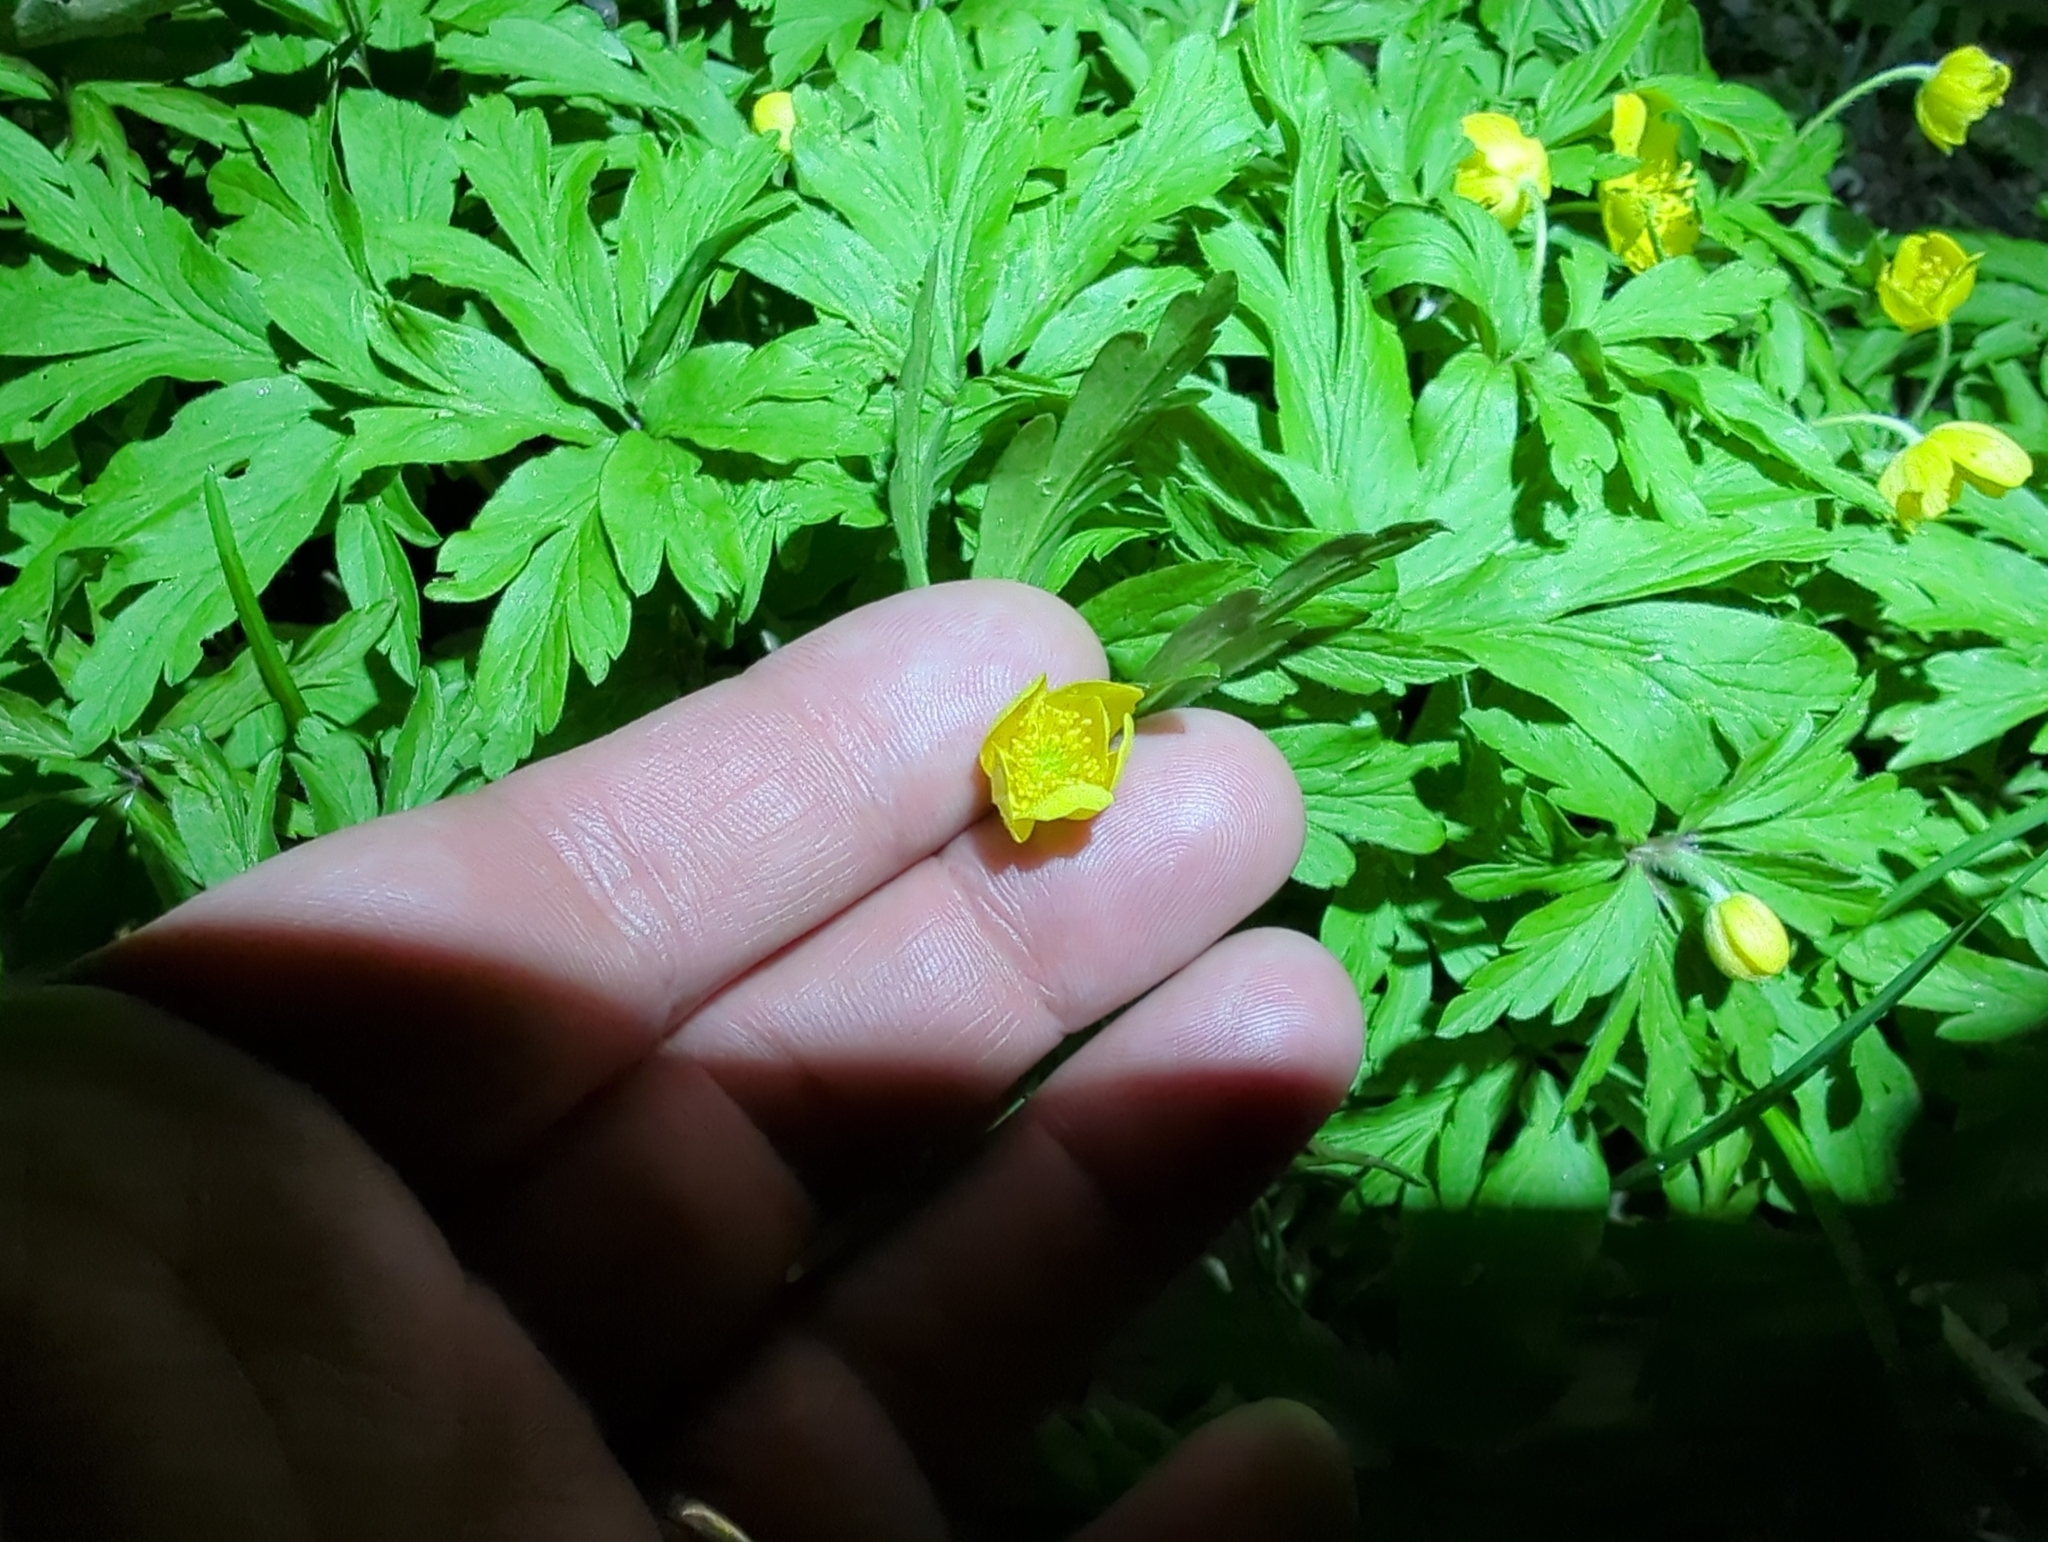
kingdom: Plantae
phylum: Tracheophyta
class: Magnoliopsida
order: Ranunculales
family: Ranunculaceae
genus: Anemone
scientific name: Anemone ranunculoides
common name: Yellow anemone
